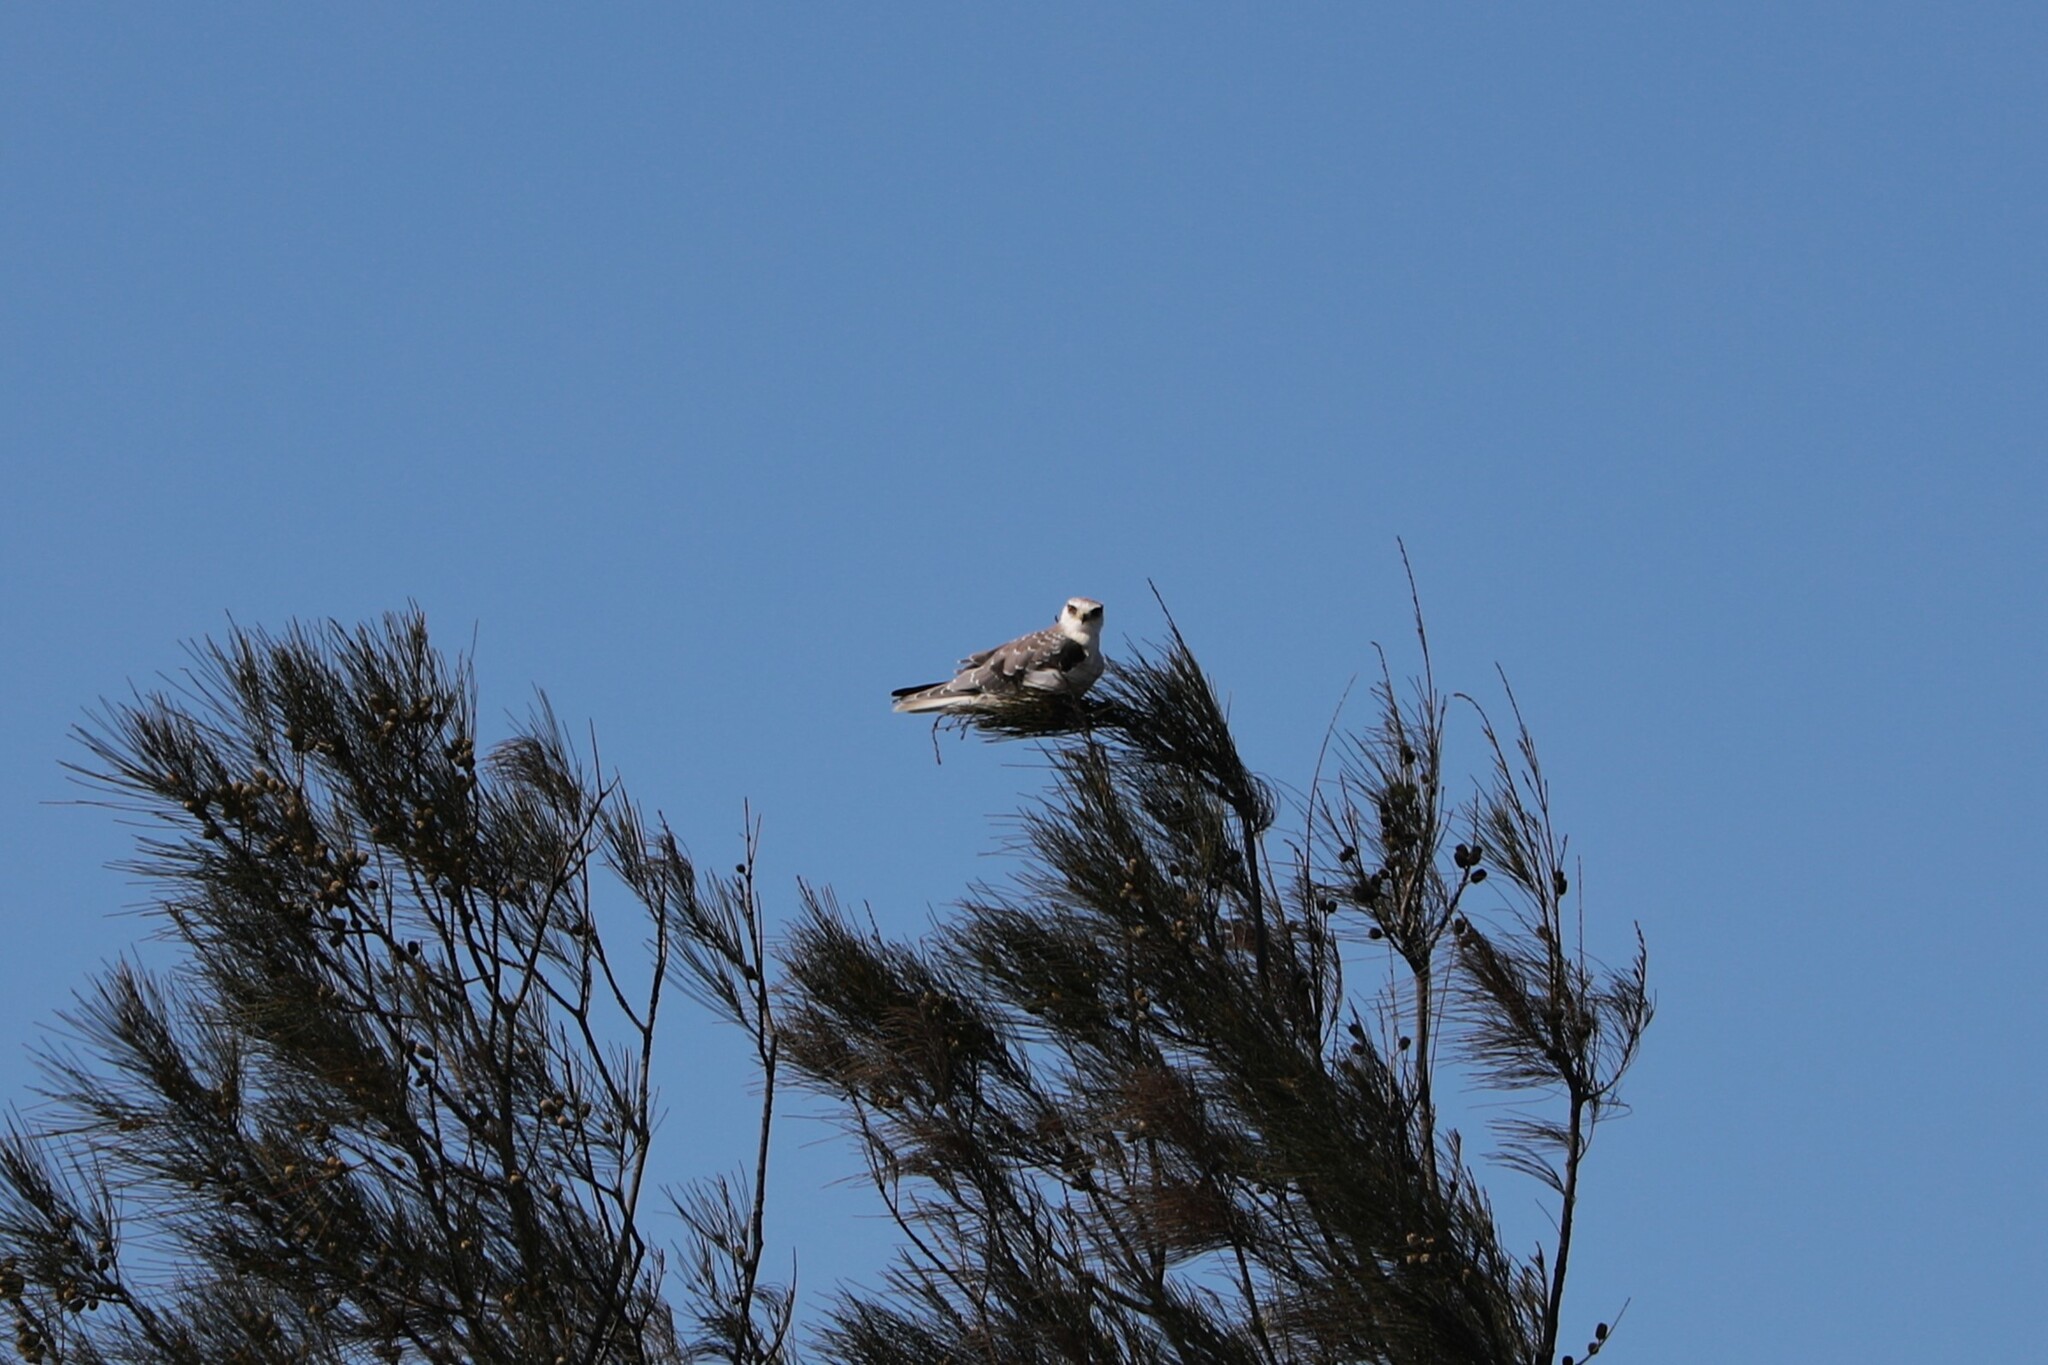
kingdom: Animalia
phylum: Chordata
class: Aves
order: Accipitriformes
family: Accipitridae
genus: Elanus
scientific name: Elanus caeruleus
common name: Black-winged kite
